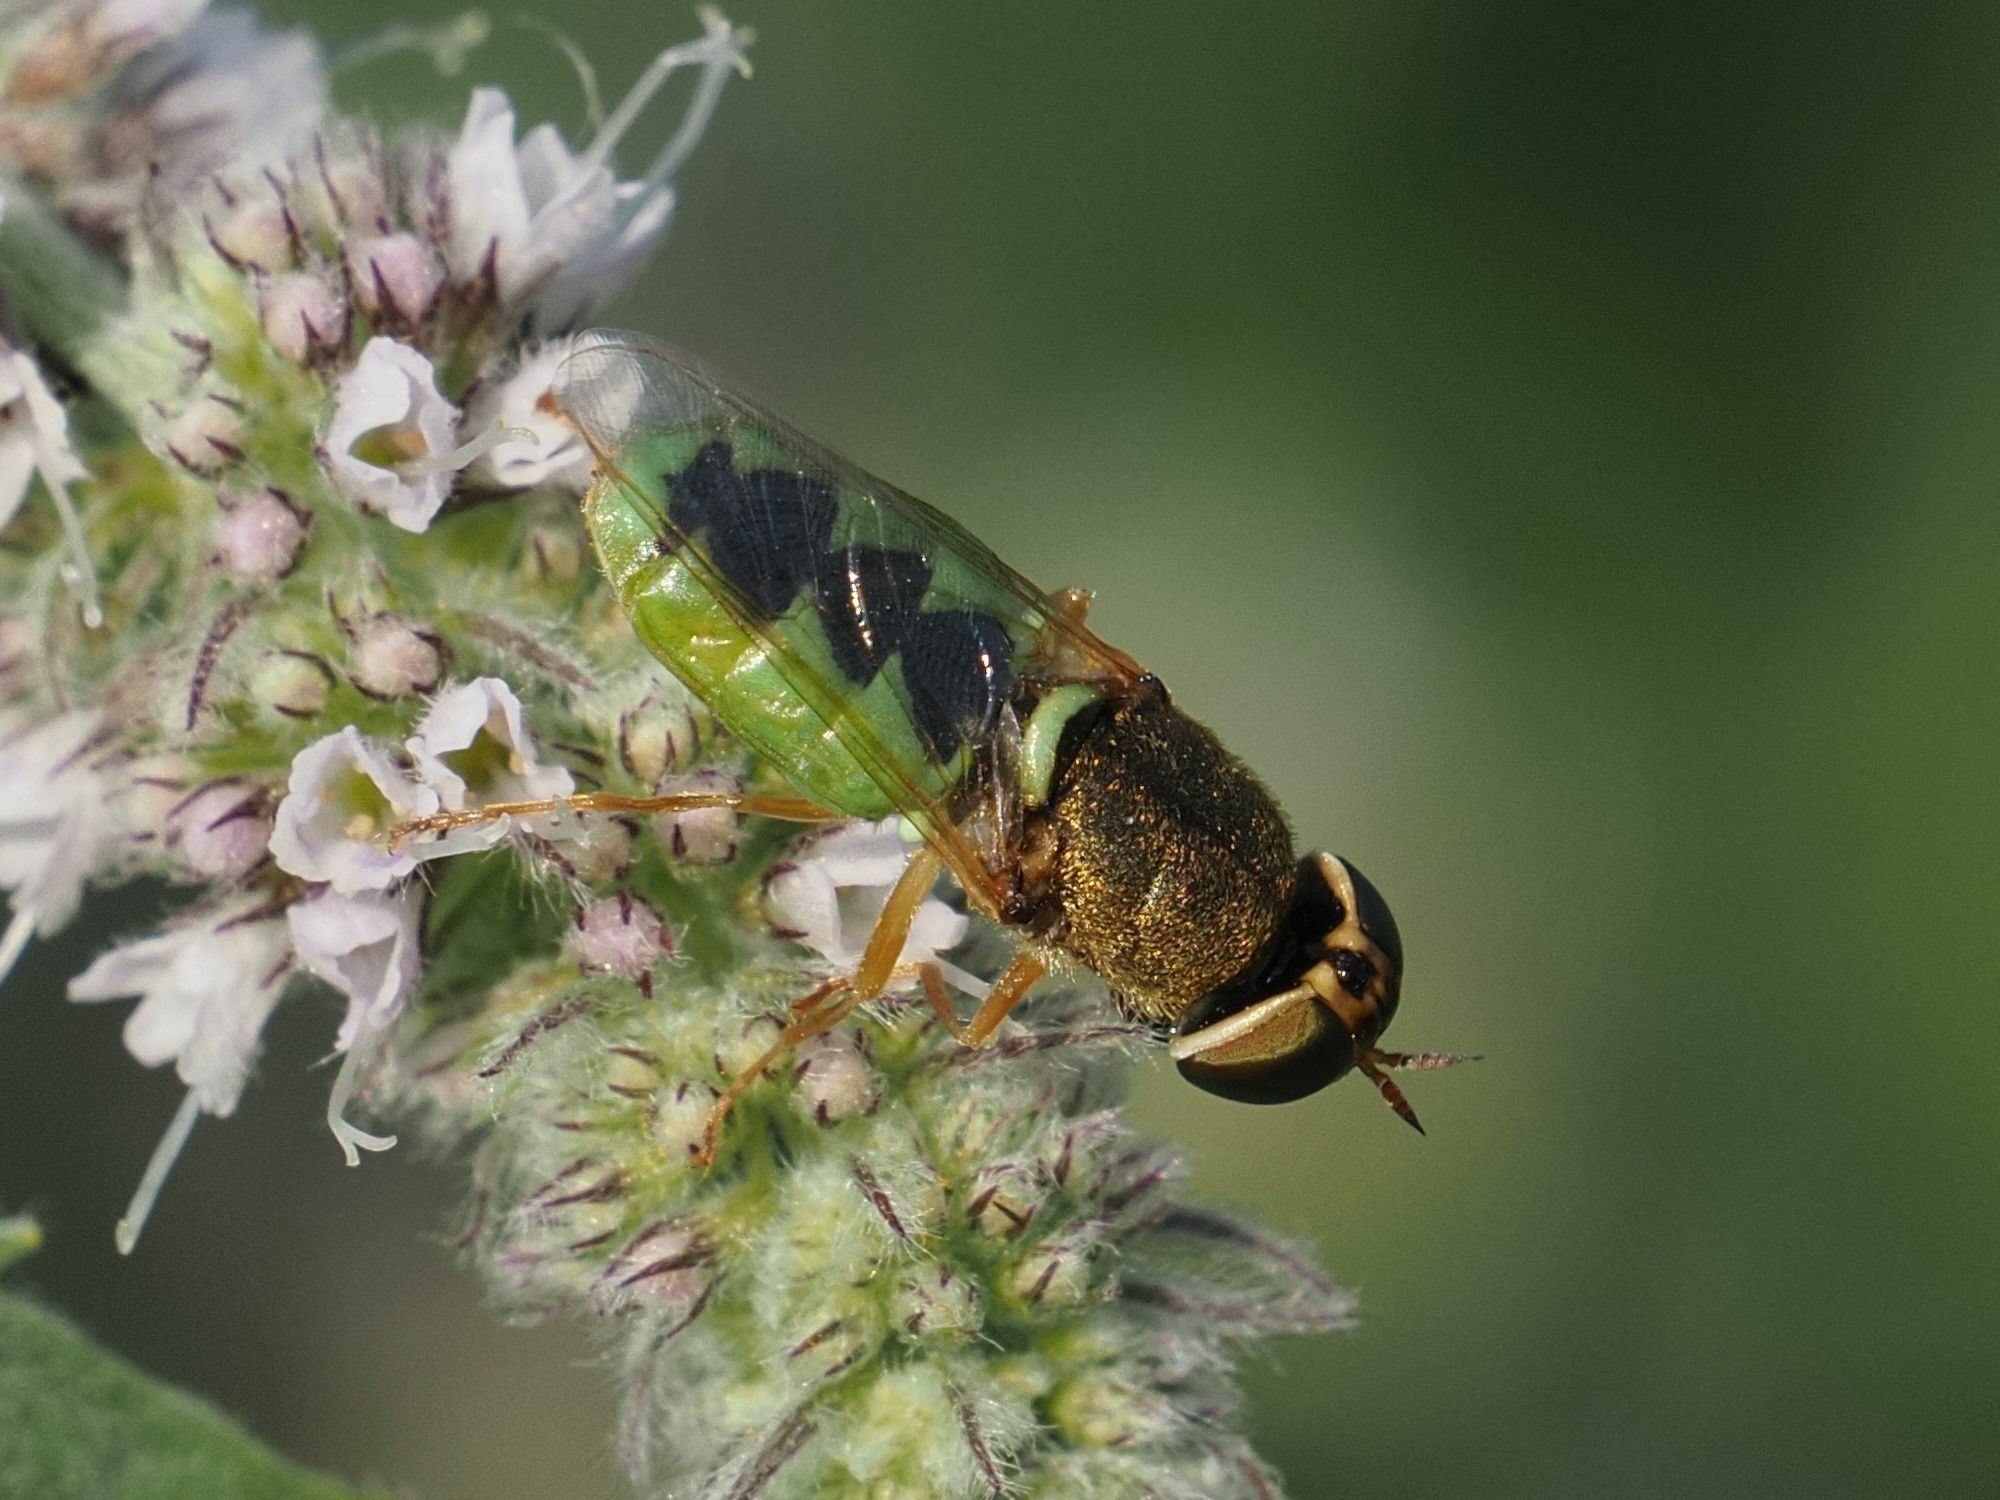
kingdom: Animalia
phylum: Arthropoda
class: Insecta
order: Diptera
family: Stratiomyidae
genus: Odontomyia
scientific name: Odontomyia angulata
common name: Orange-horned green colonel
